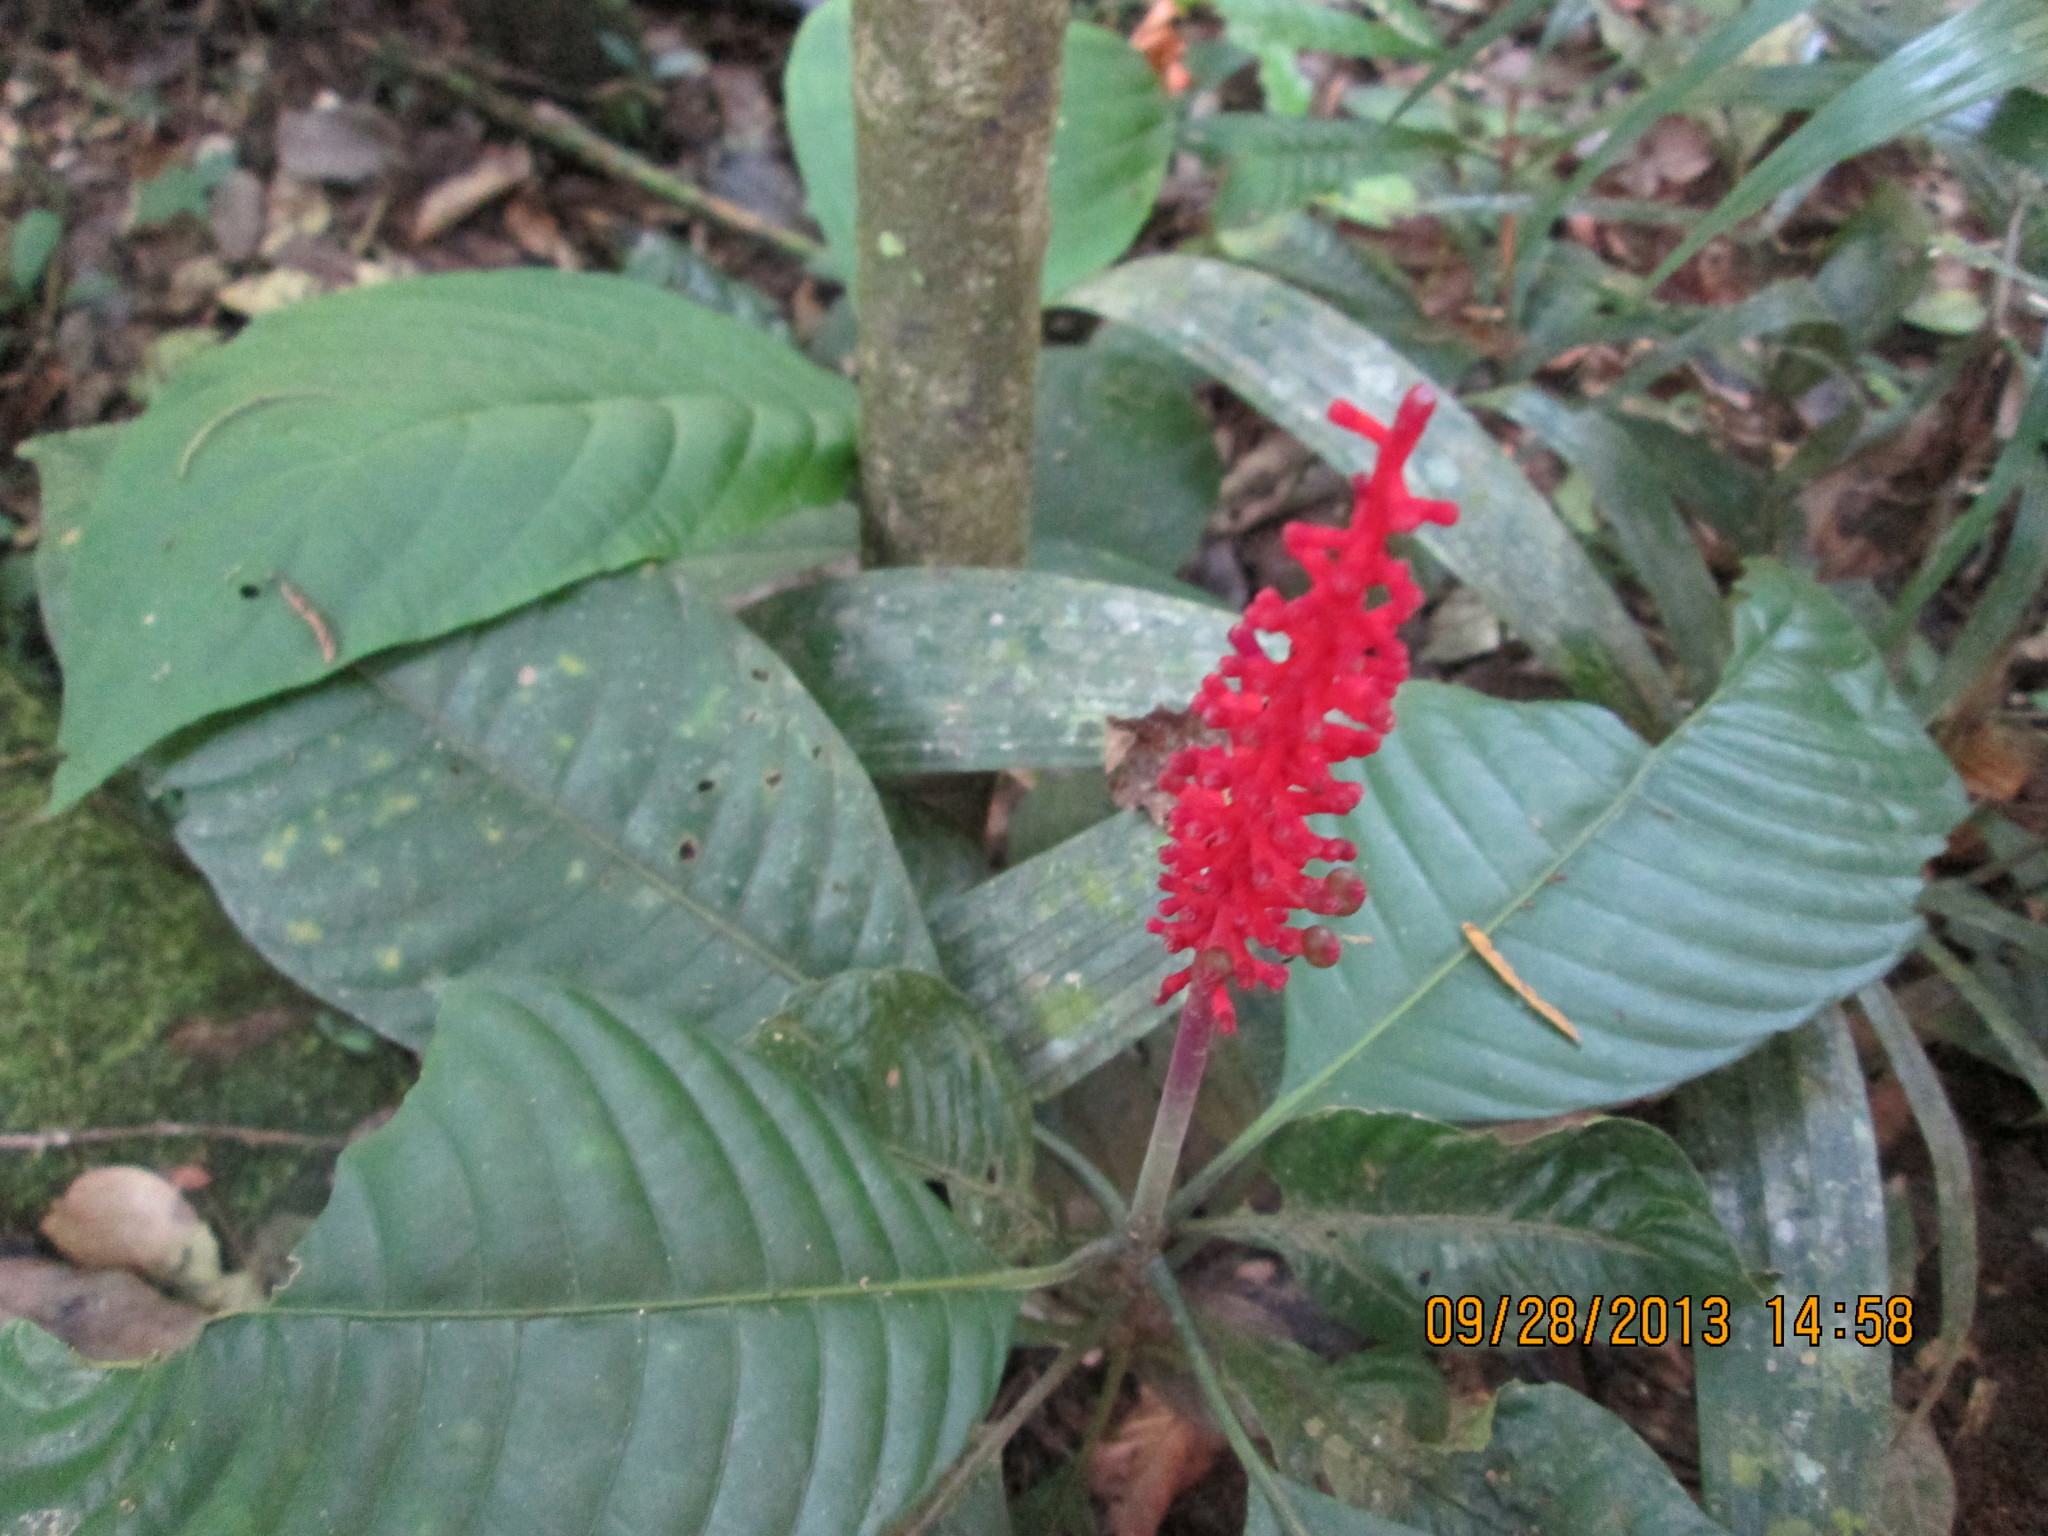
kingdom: Plantae
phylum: Tracheophyta
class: Magnoliopsida
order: Gentianales
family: Rubiaceae
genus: Palicourea
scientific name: Palicourea subspicata
